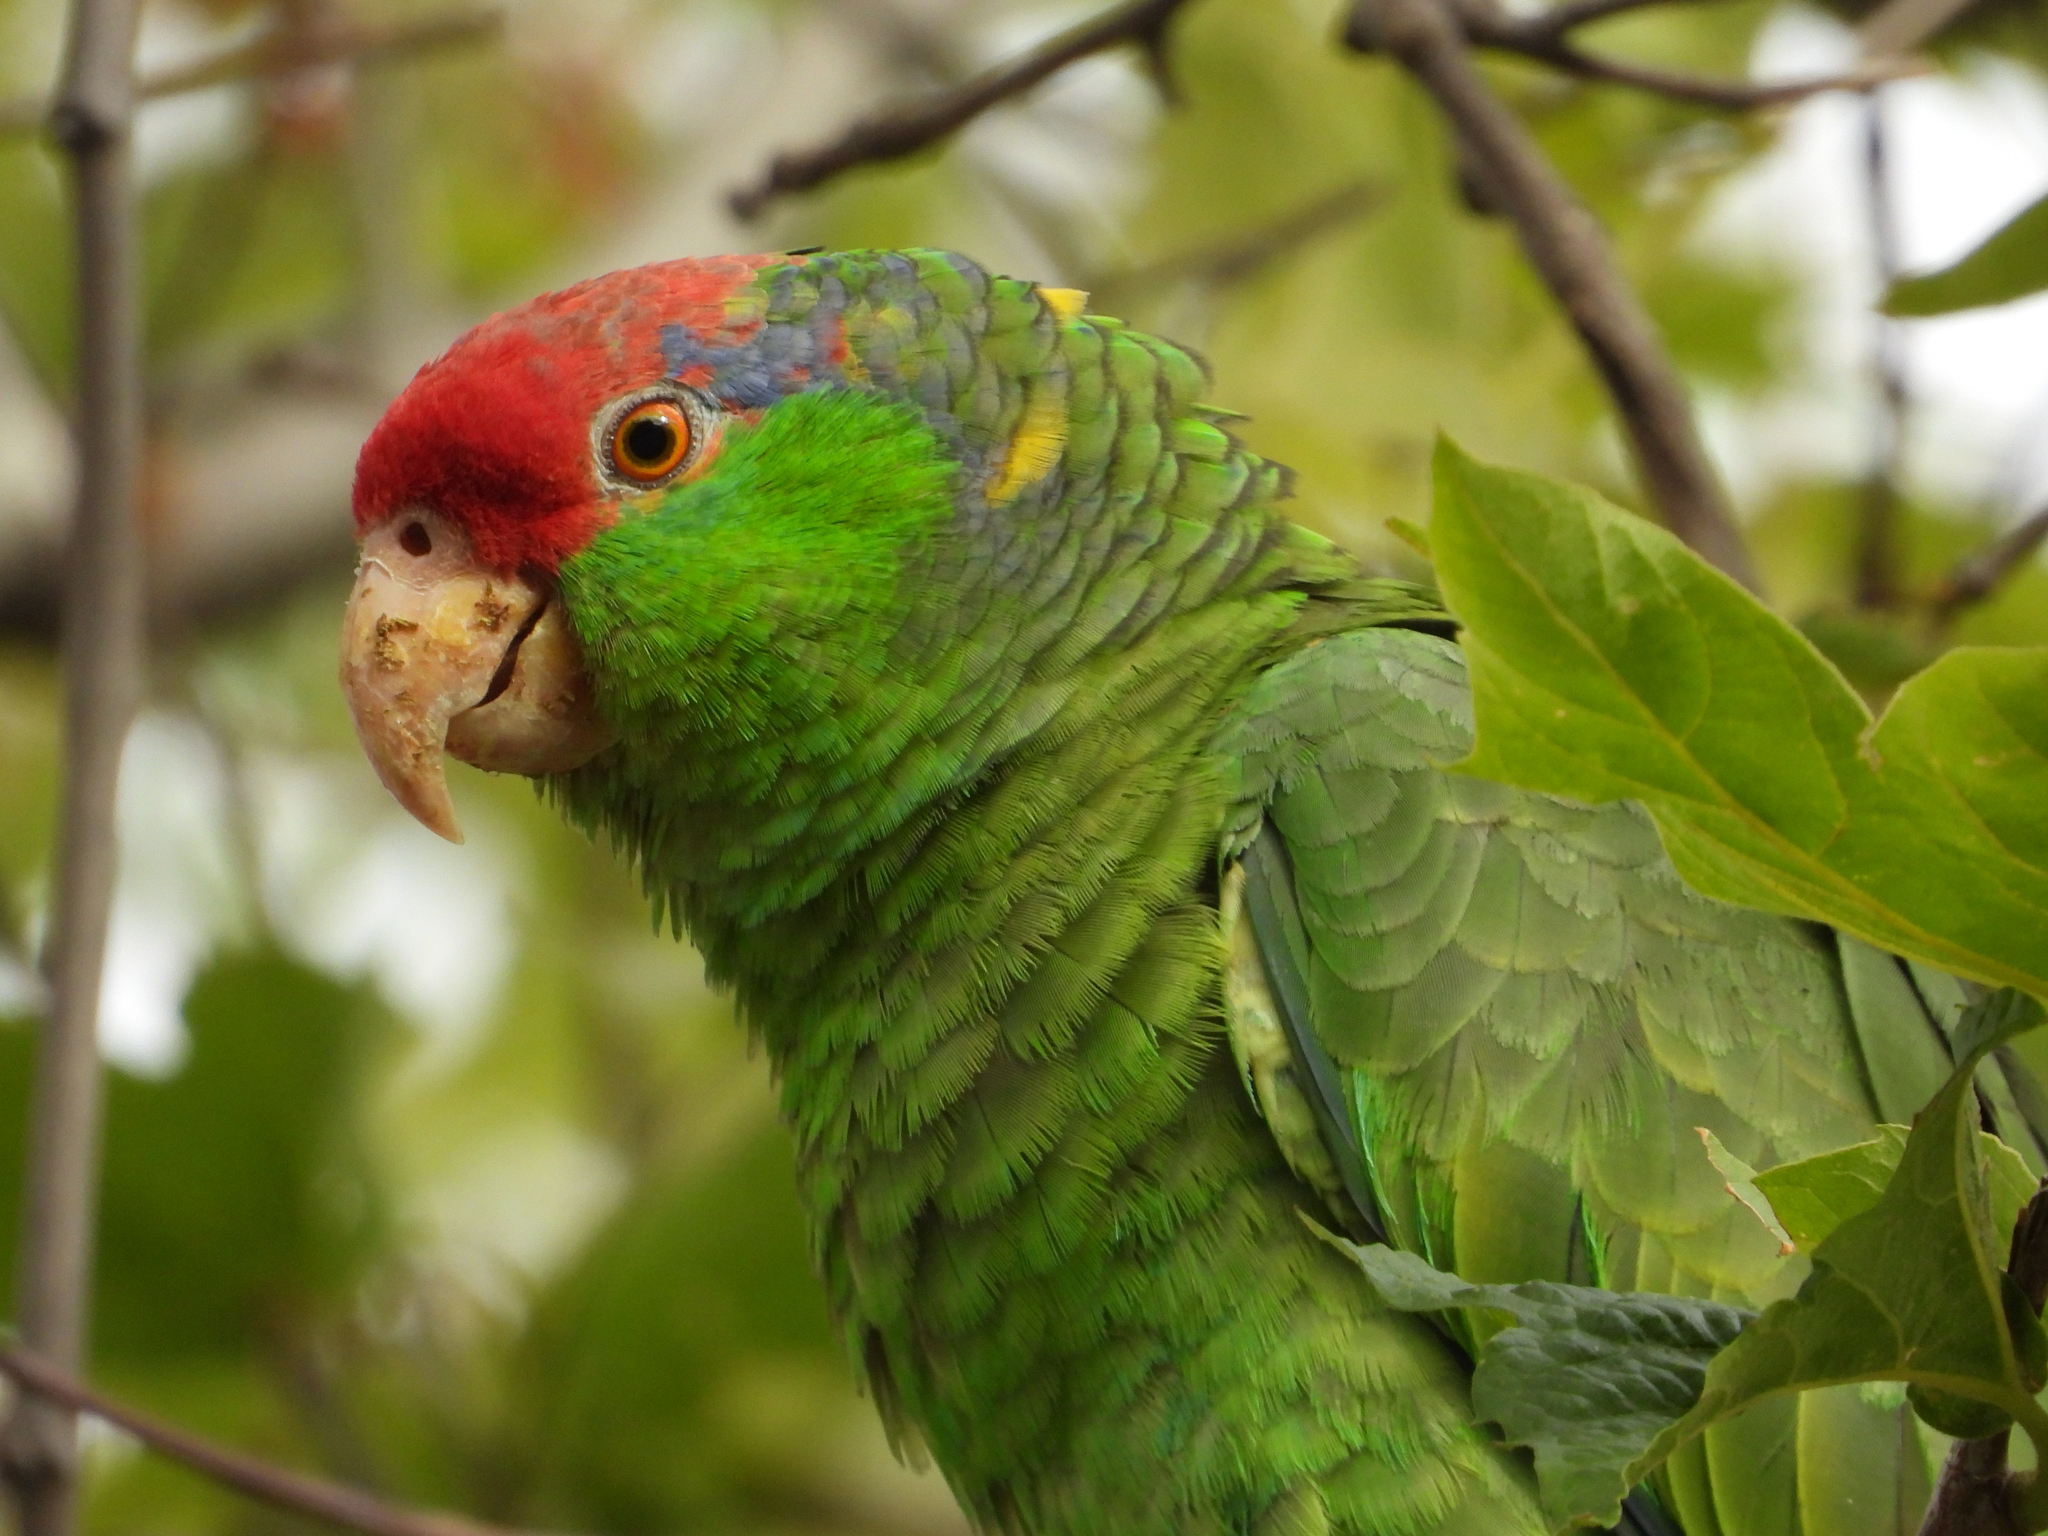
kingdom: Animalia
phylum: Chordata
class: Aves
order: Psittaciformes
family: Psittacidae
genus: Amazona
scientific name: Amazona viridigenalis
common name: Red-crowned amazon
